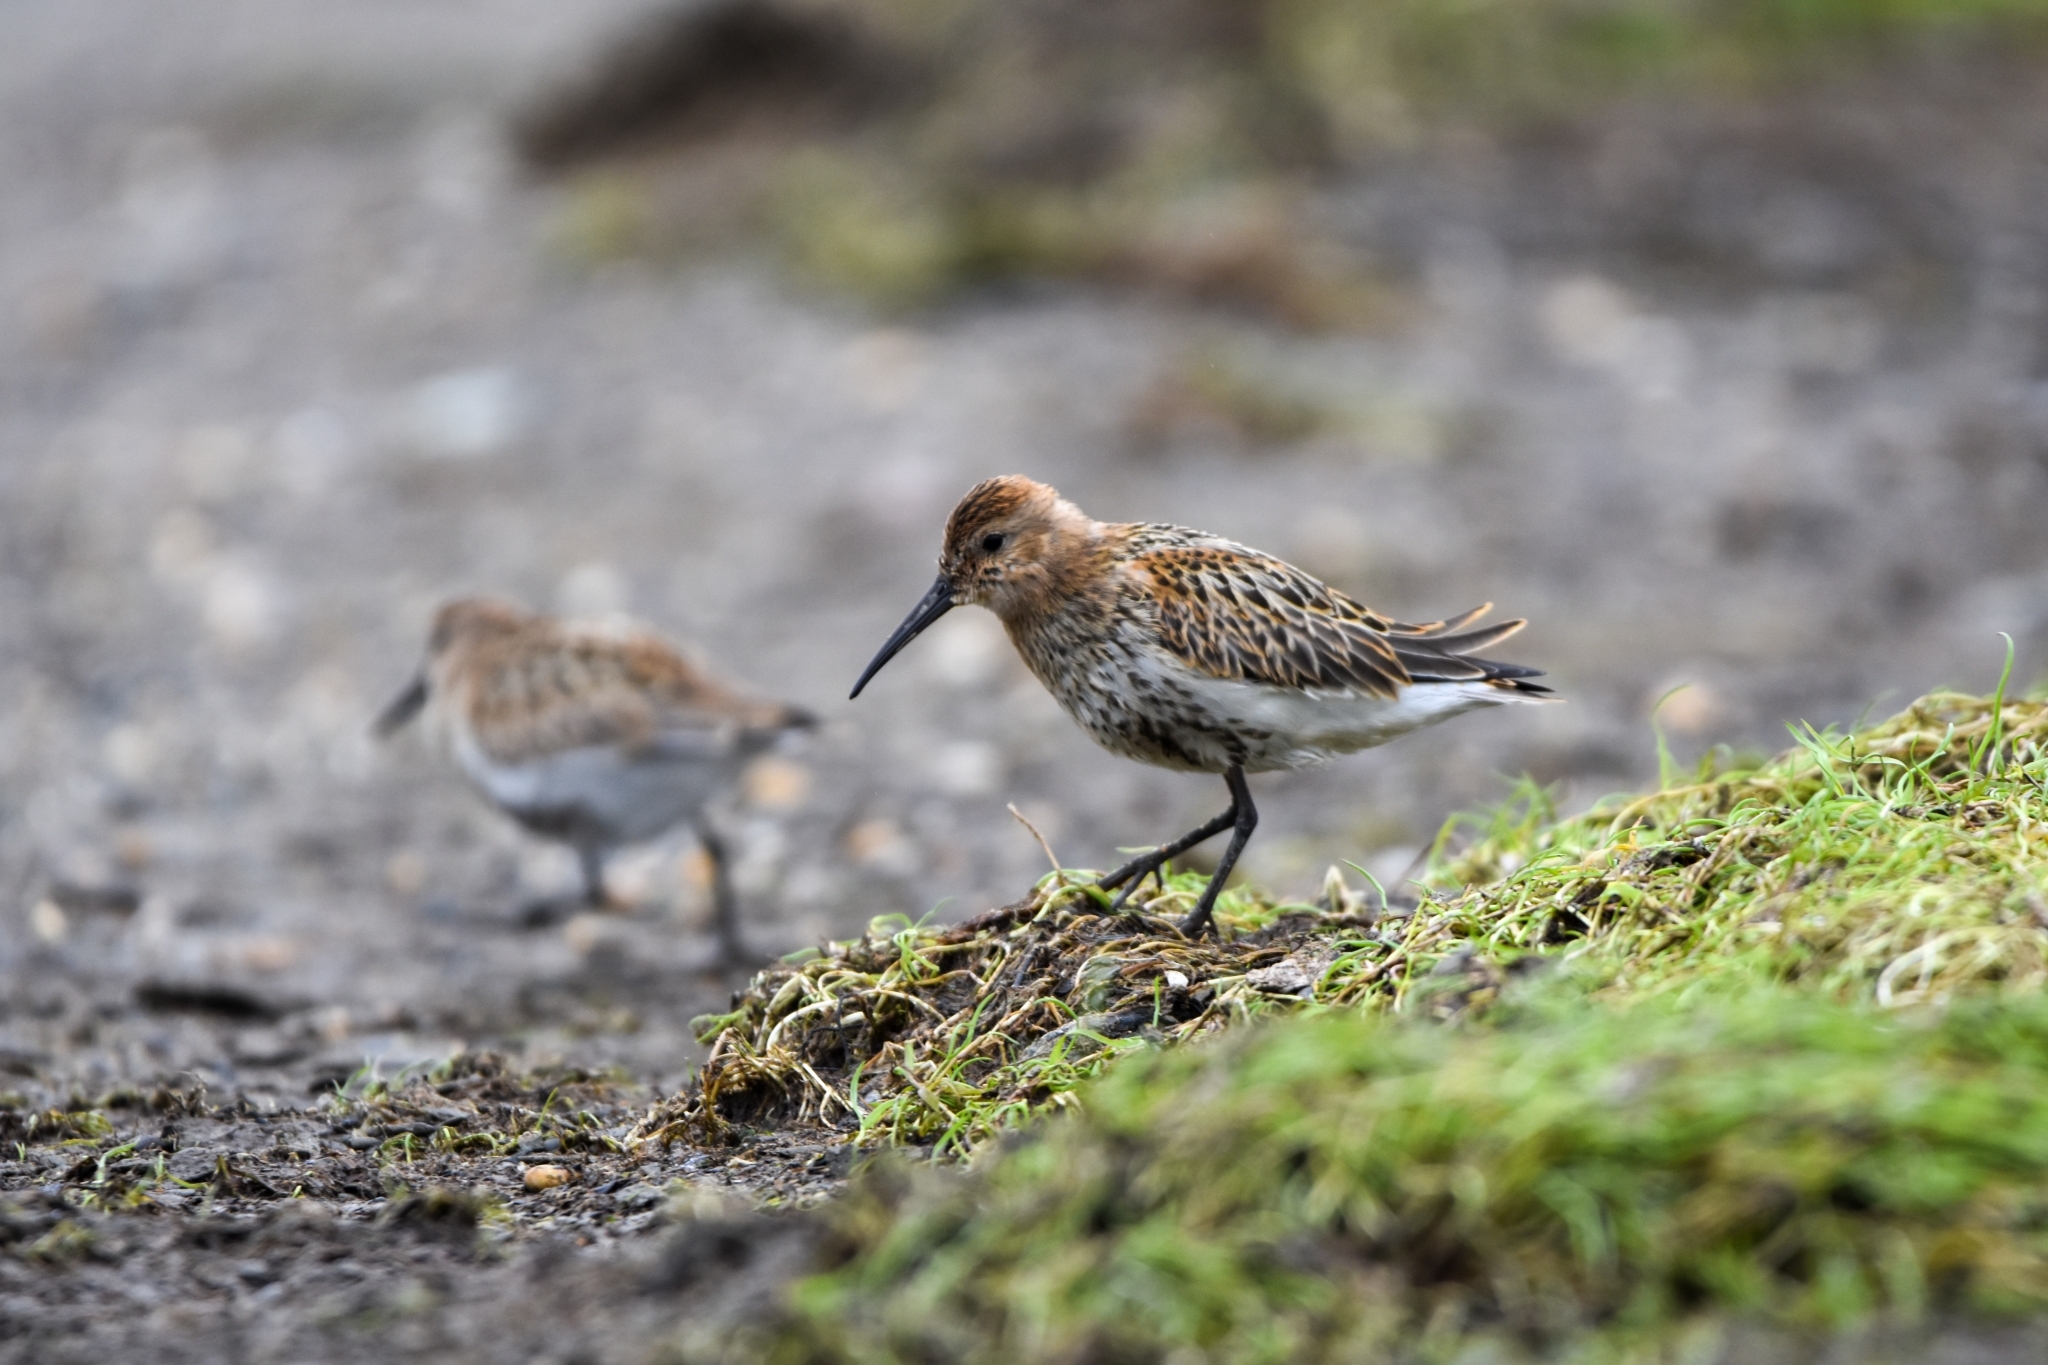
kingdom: Animalia
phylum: Chordata
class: Aves
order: Charadriiformes
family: Scolopacidae
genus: Calidris
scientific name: Calidris alpina
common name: Dunlin
